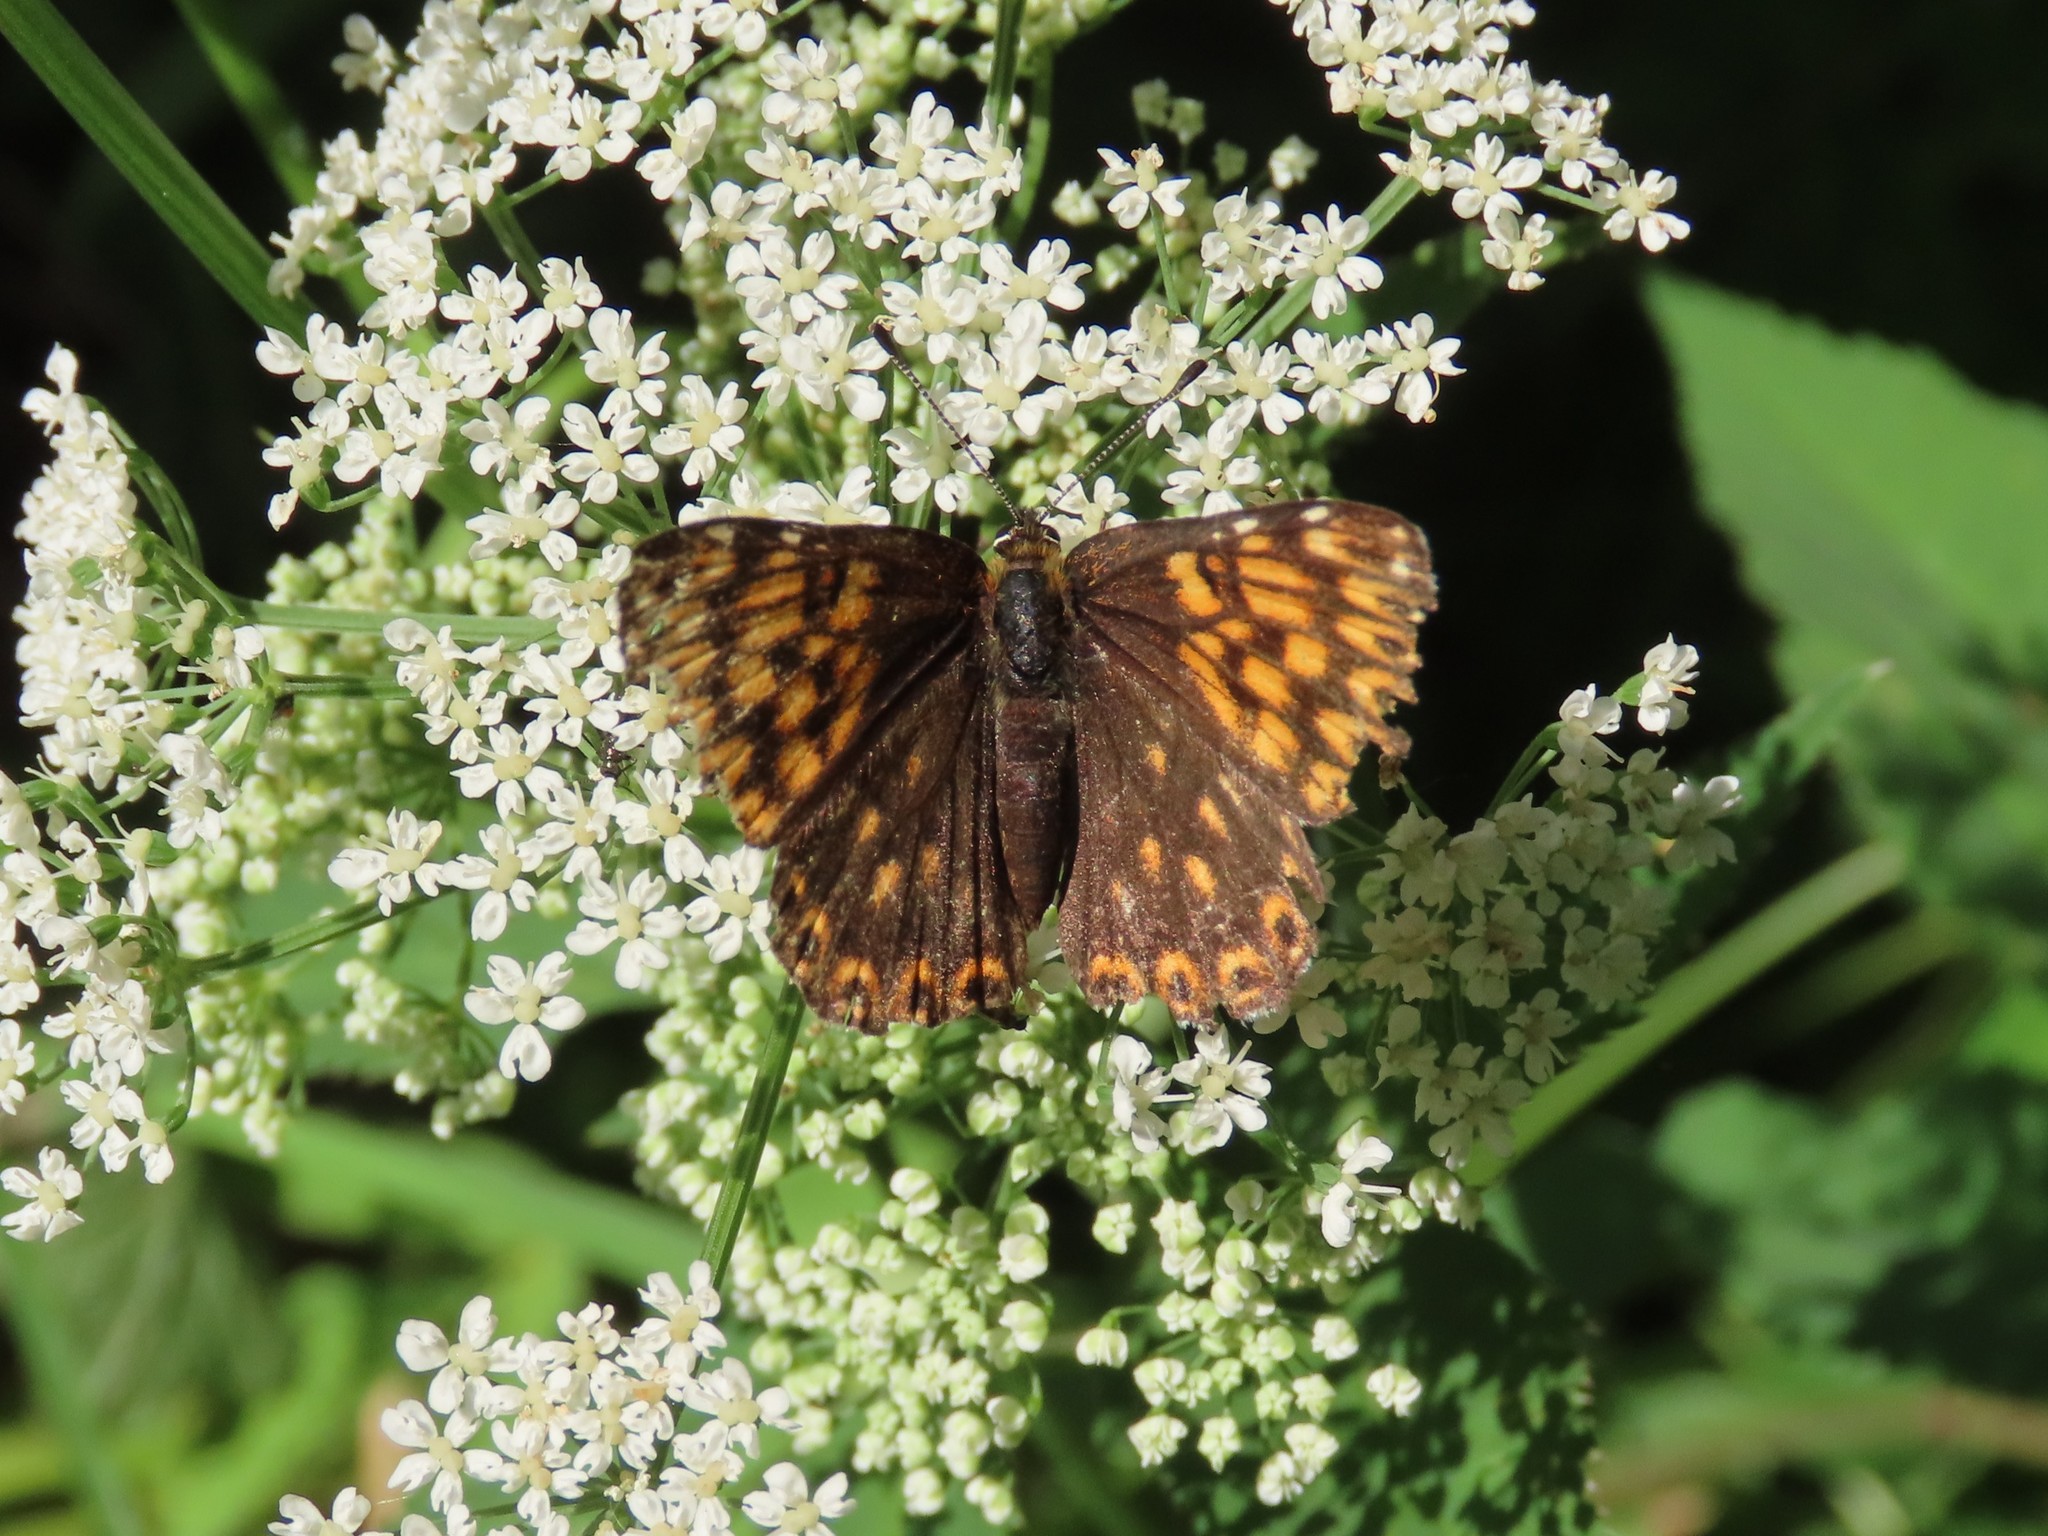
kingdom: Animalia
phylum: Arthropoda
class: Insecta
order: Lepidoptera
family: Riodinidae
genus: Hamearis
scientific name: Hamearis lucina
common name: Duke of burgundy fritillary
